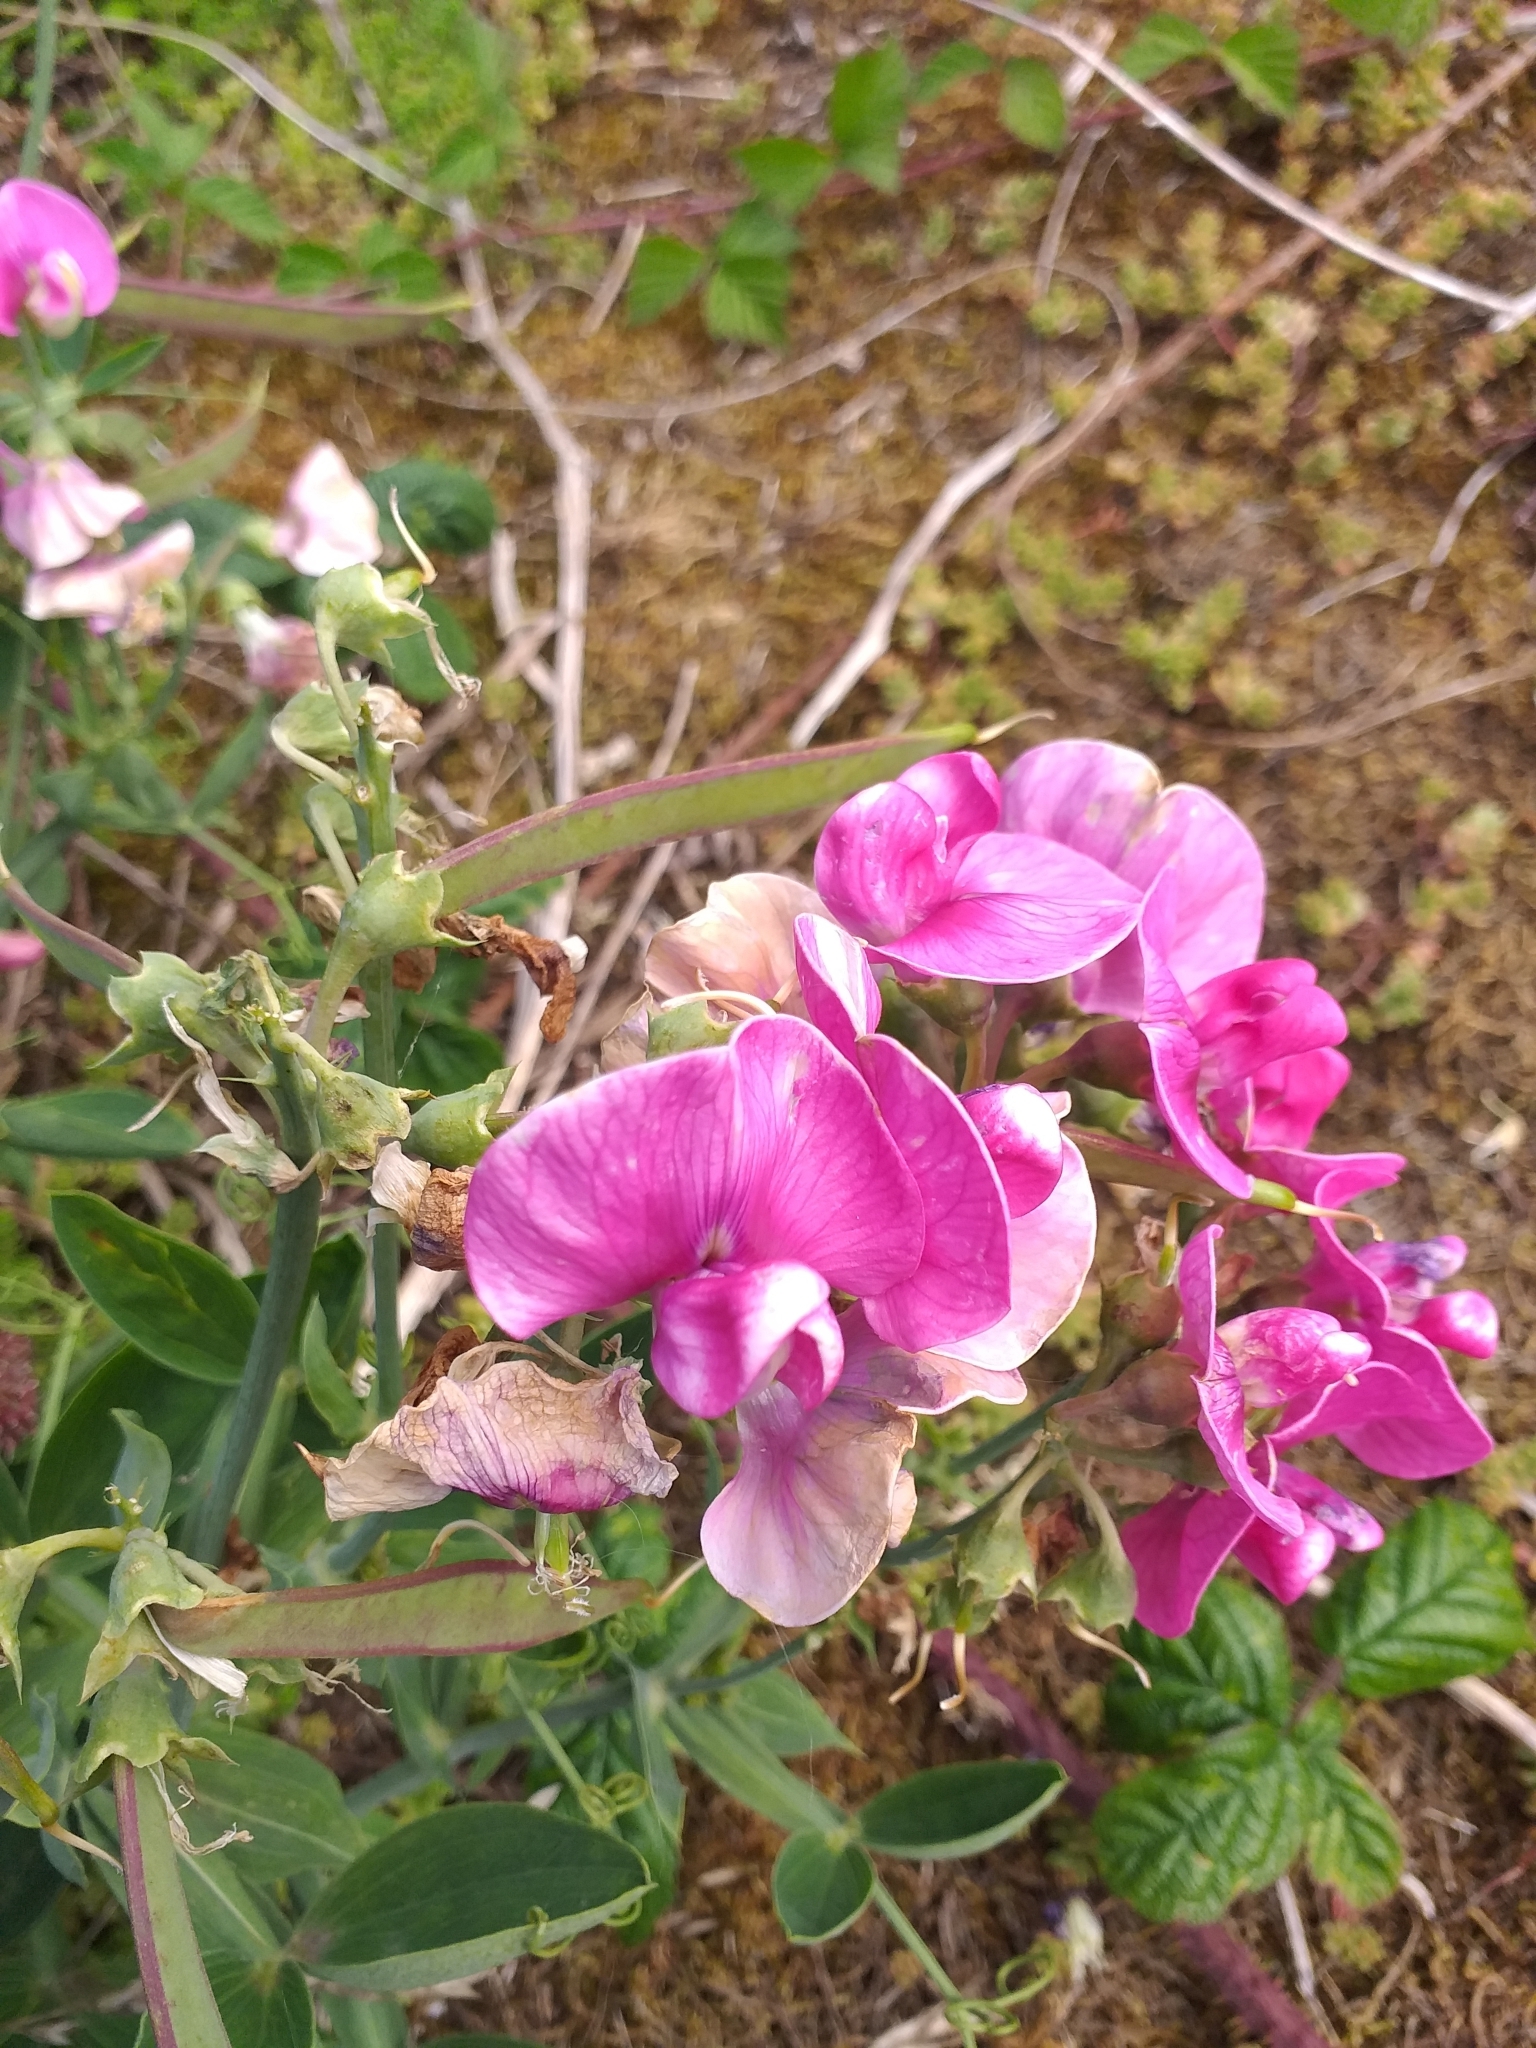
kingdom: Plantae
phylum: Tracheophyta
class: Magnoliopsida
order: Fabales
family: Fabaceae
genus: Lathyrus
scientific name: Lathyrus latifolius
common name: Perennial pea
